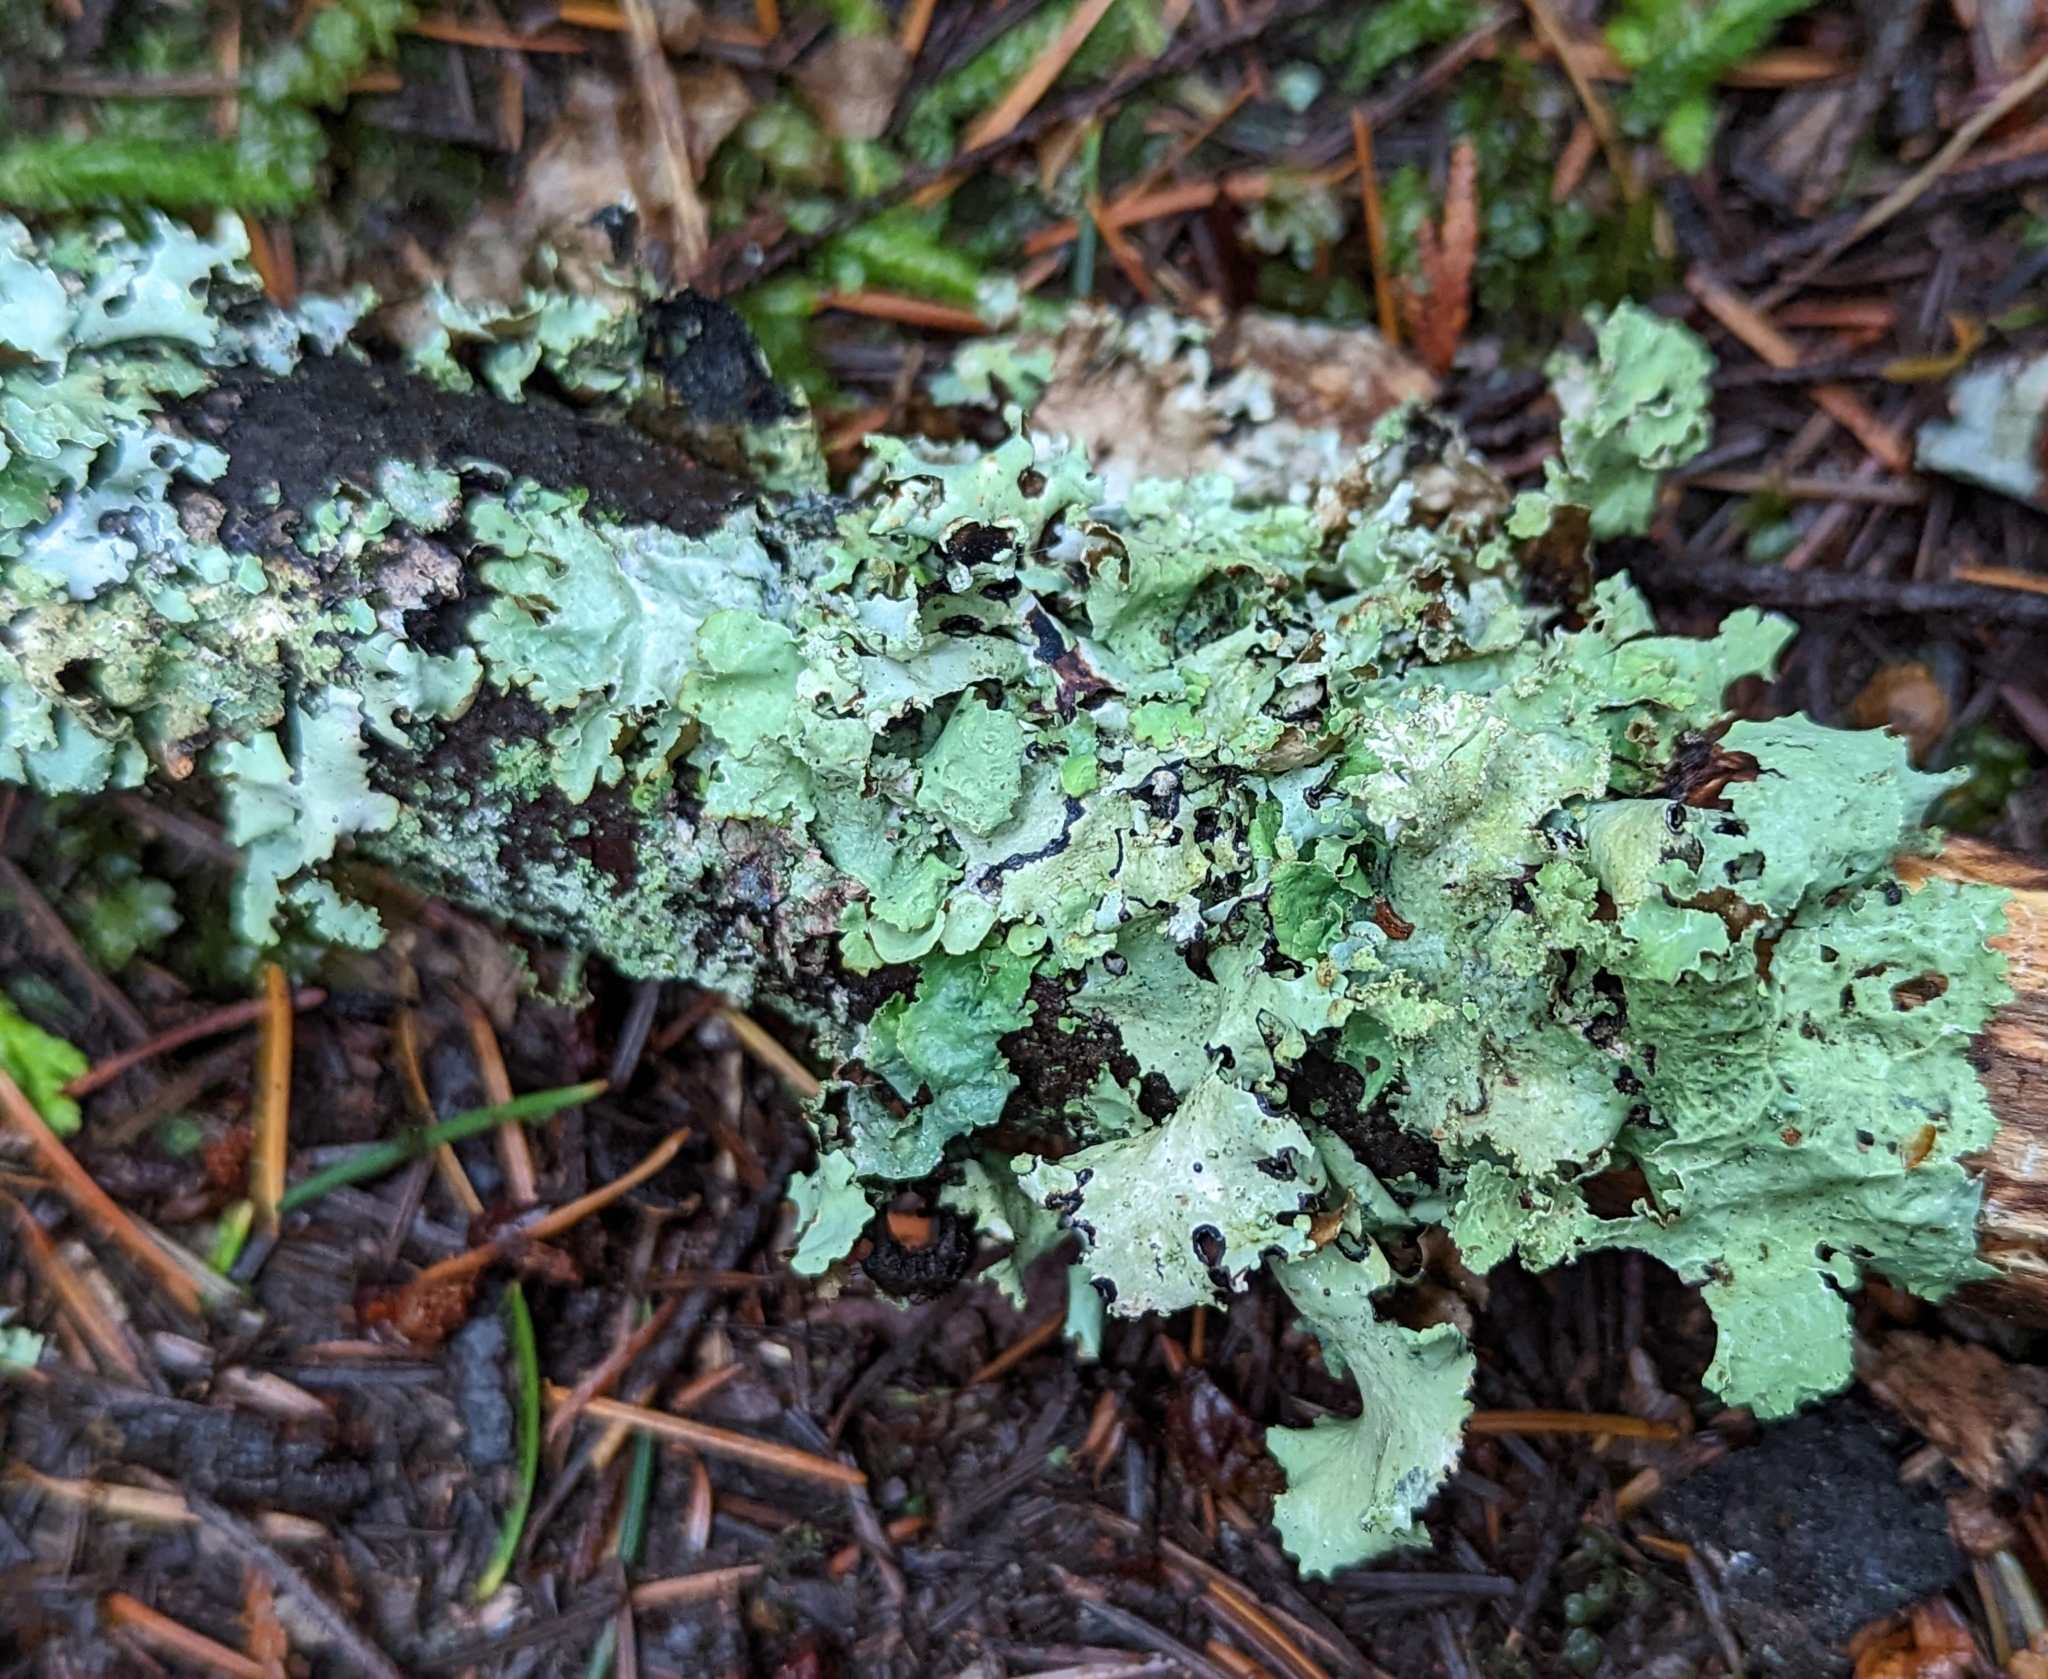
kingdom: Fungi
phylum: Ascomycota
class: Lecanoromycetes
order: Lecanorales
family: Parmeliaceae
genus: Platismatia
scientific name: Platismatia glauca
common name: Varied rag lichen
